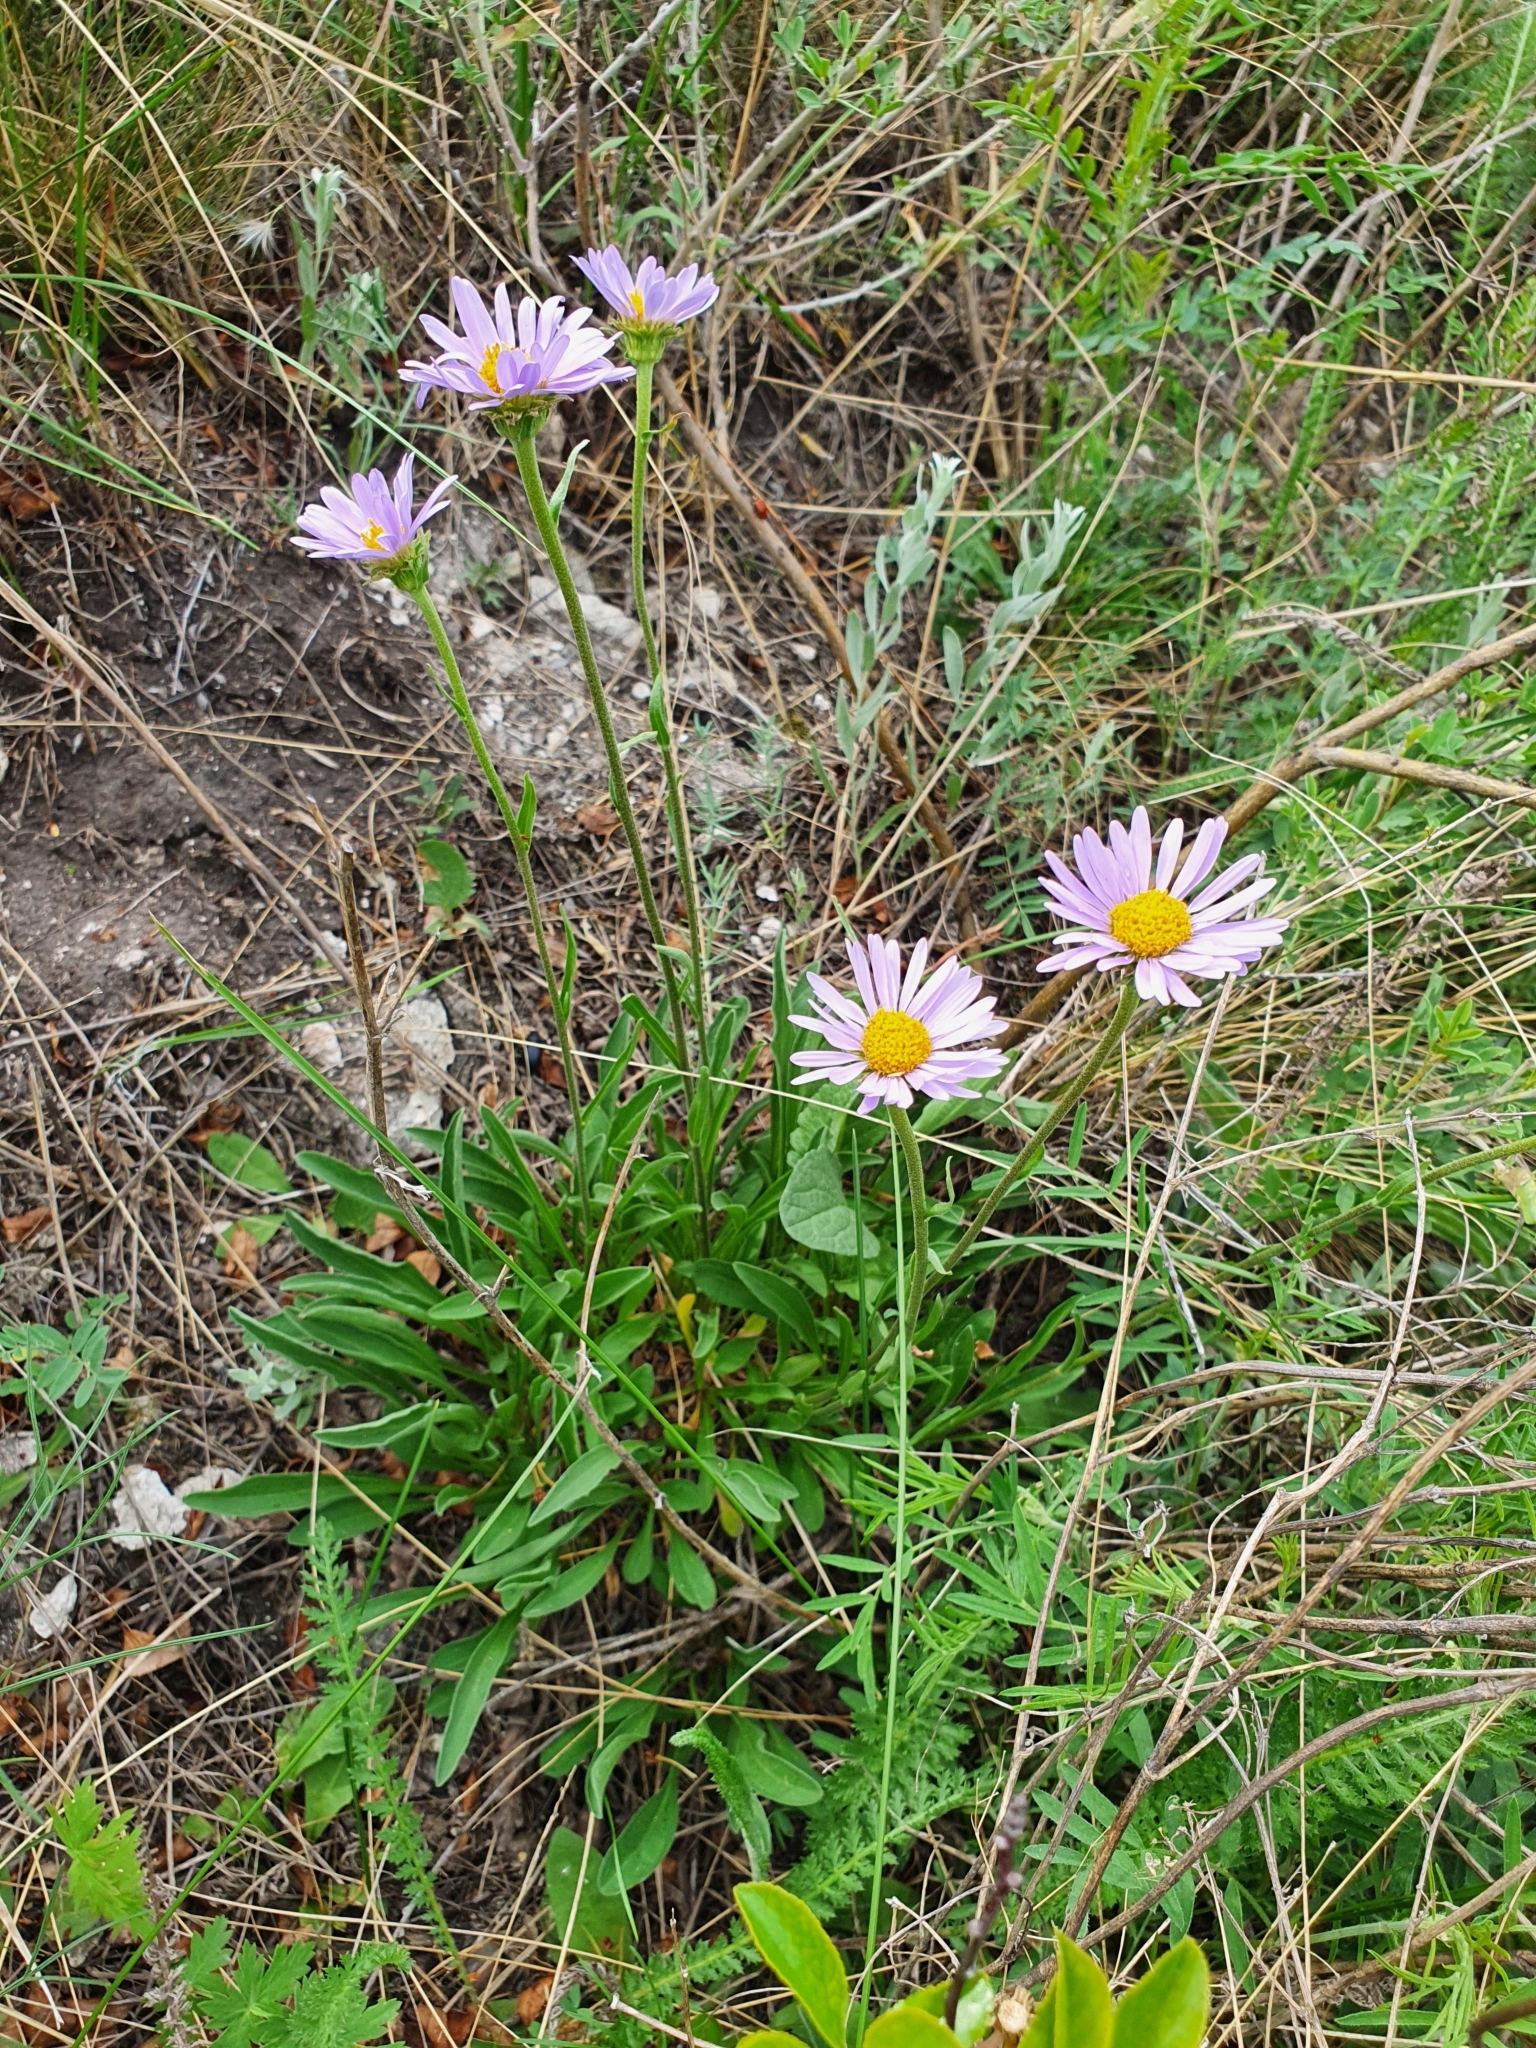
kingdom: Plantae
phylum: Tracheophyta
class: Magnoliopsida
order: Asterales
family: Asteraceae
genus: Aster
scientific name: Aster alpinus
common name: Alpine aster
